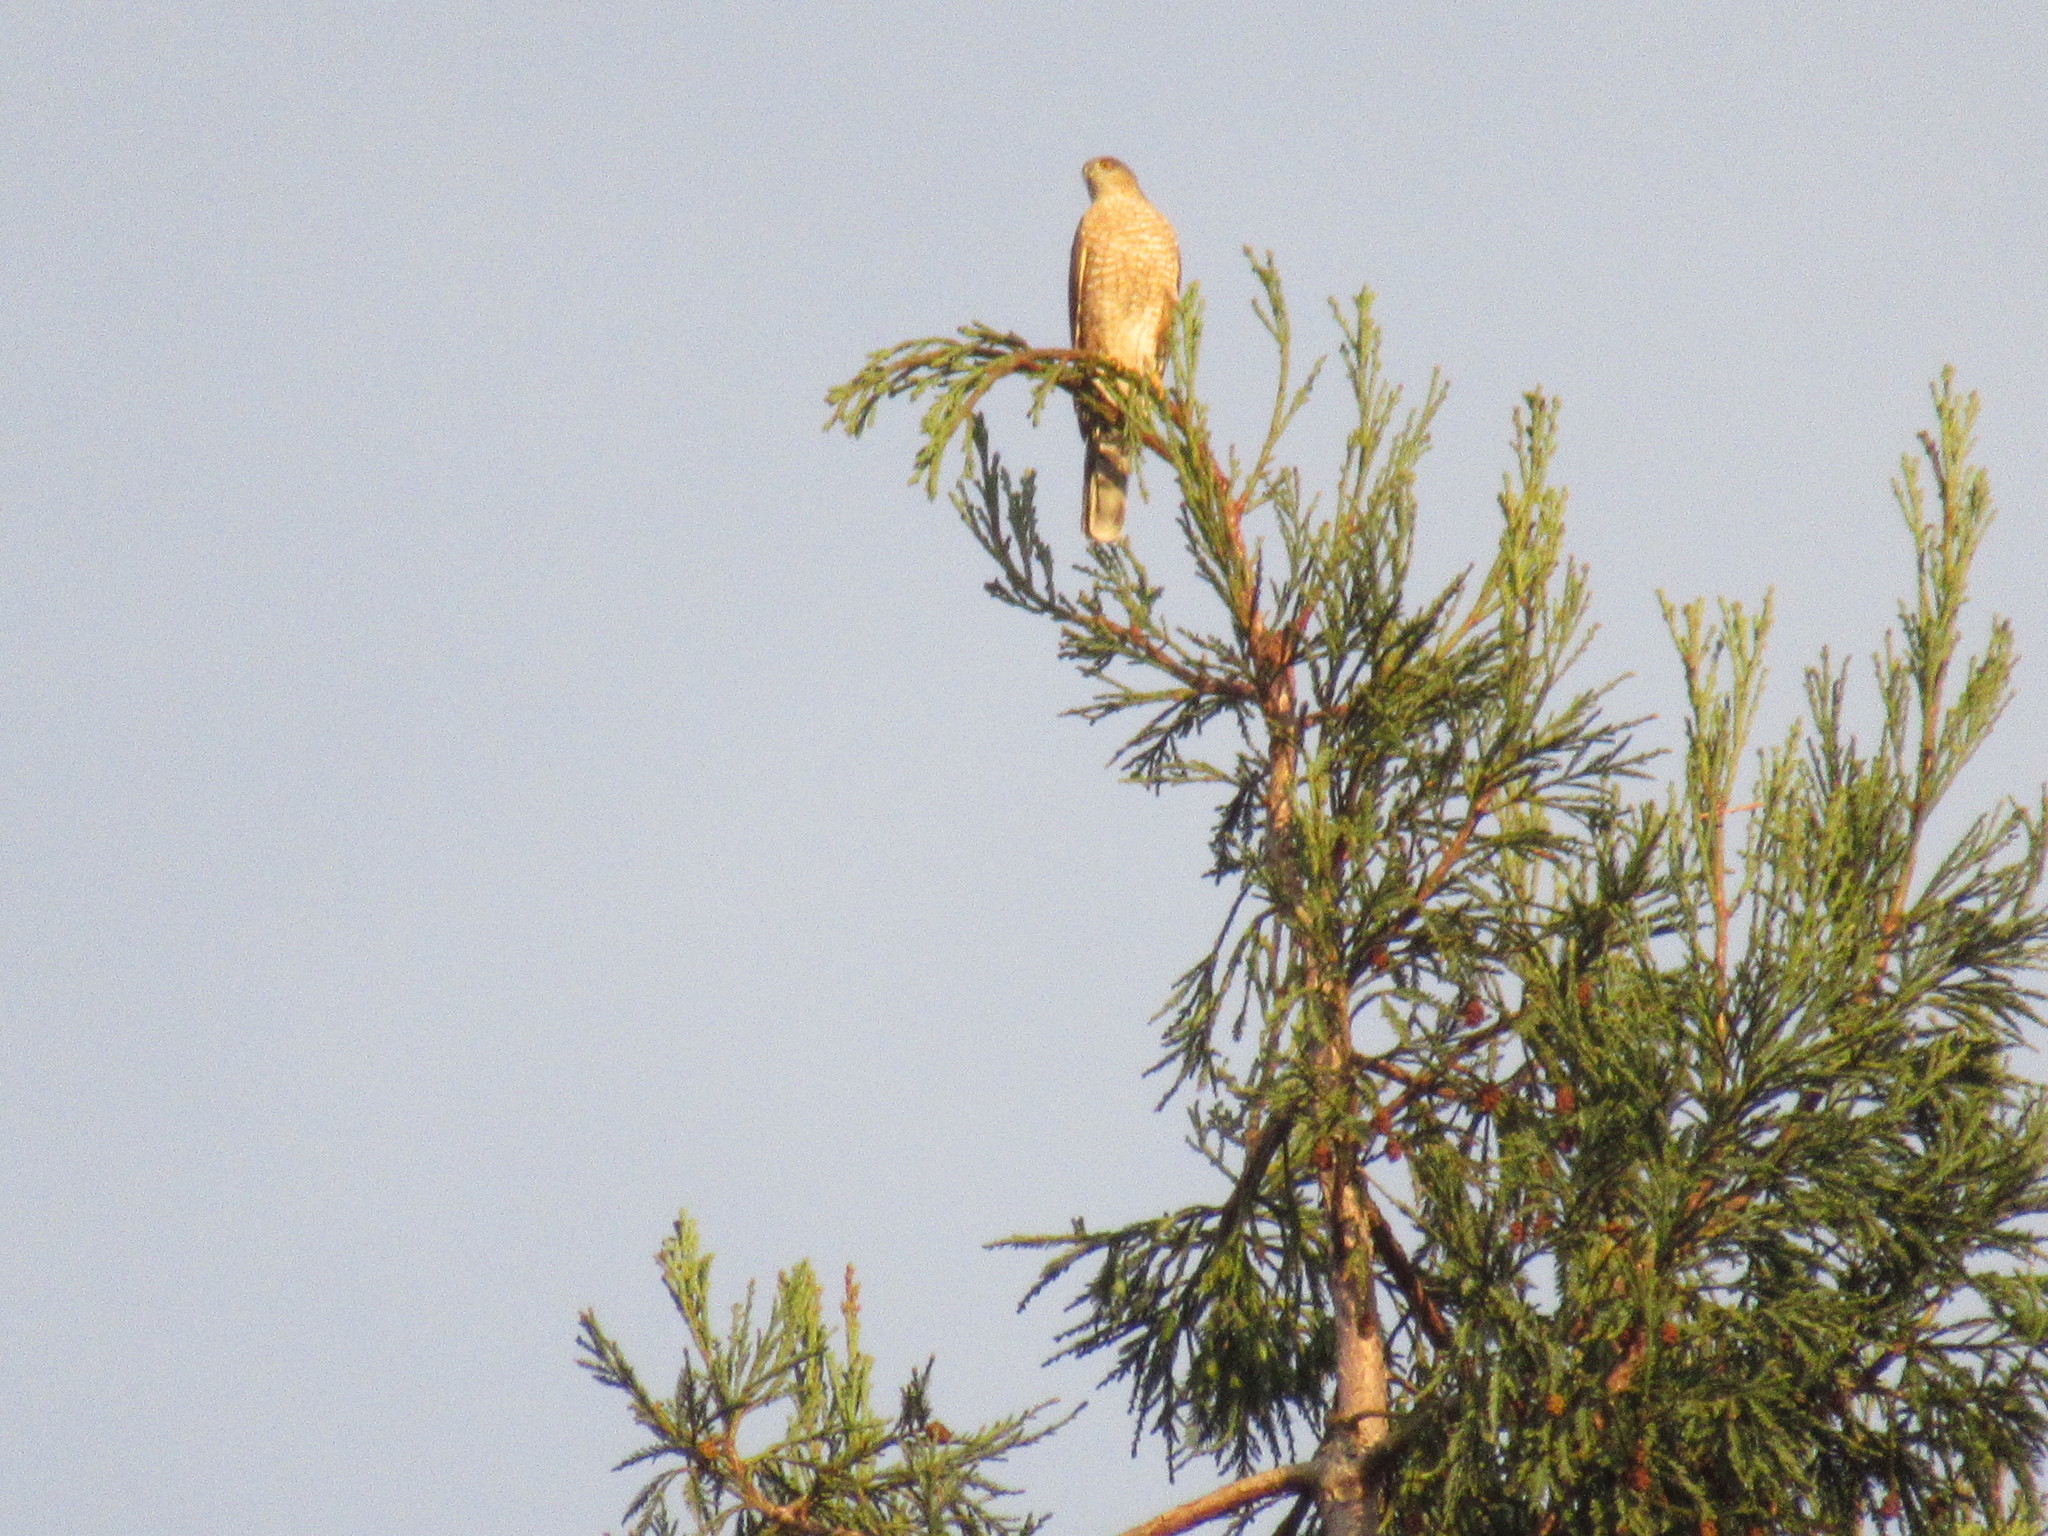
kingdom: Animalia
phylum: Chordata
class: Aves
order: Accipitriformes
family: Accipitridae
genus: Accipiter
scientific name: Accipiter striatus
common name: Sharp-shinned hawk
